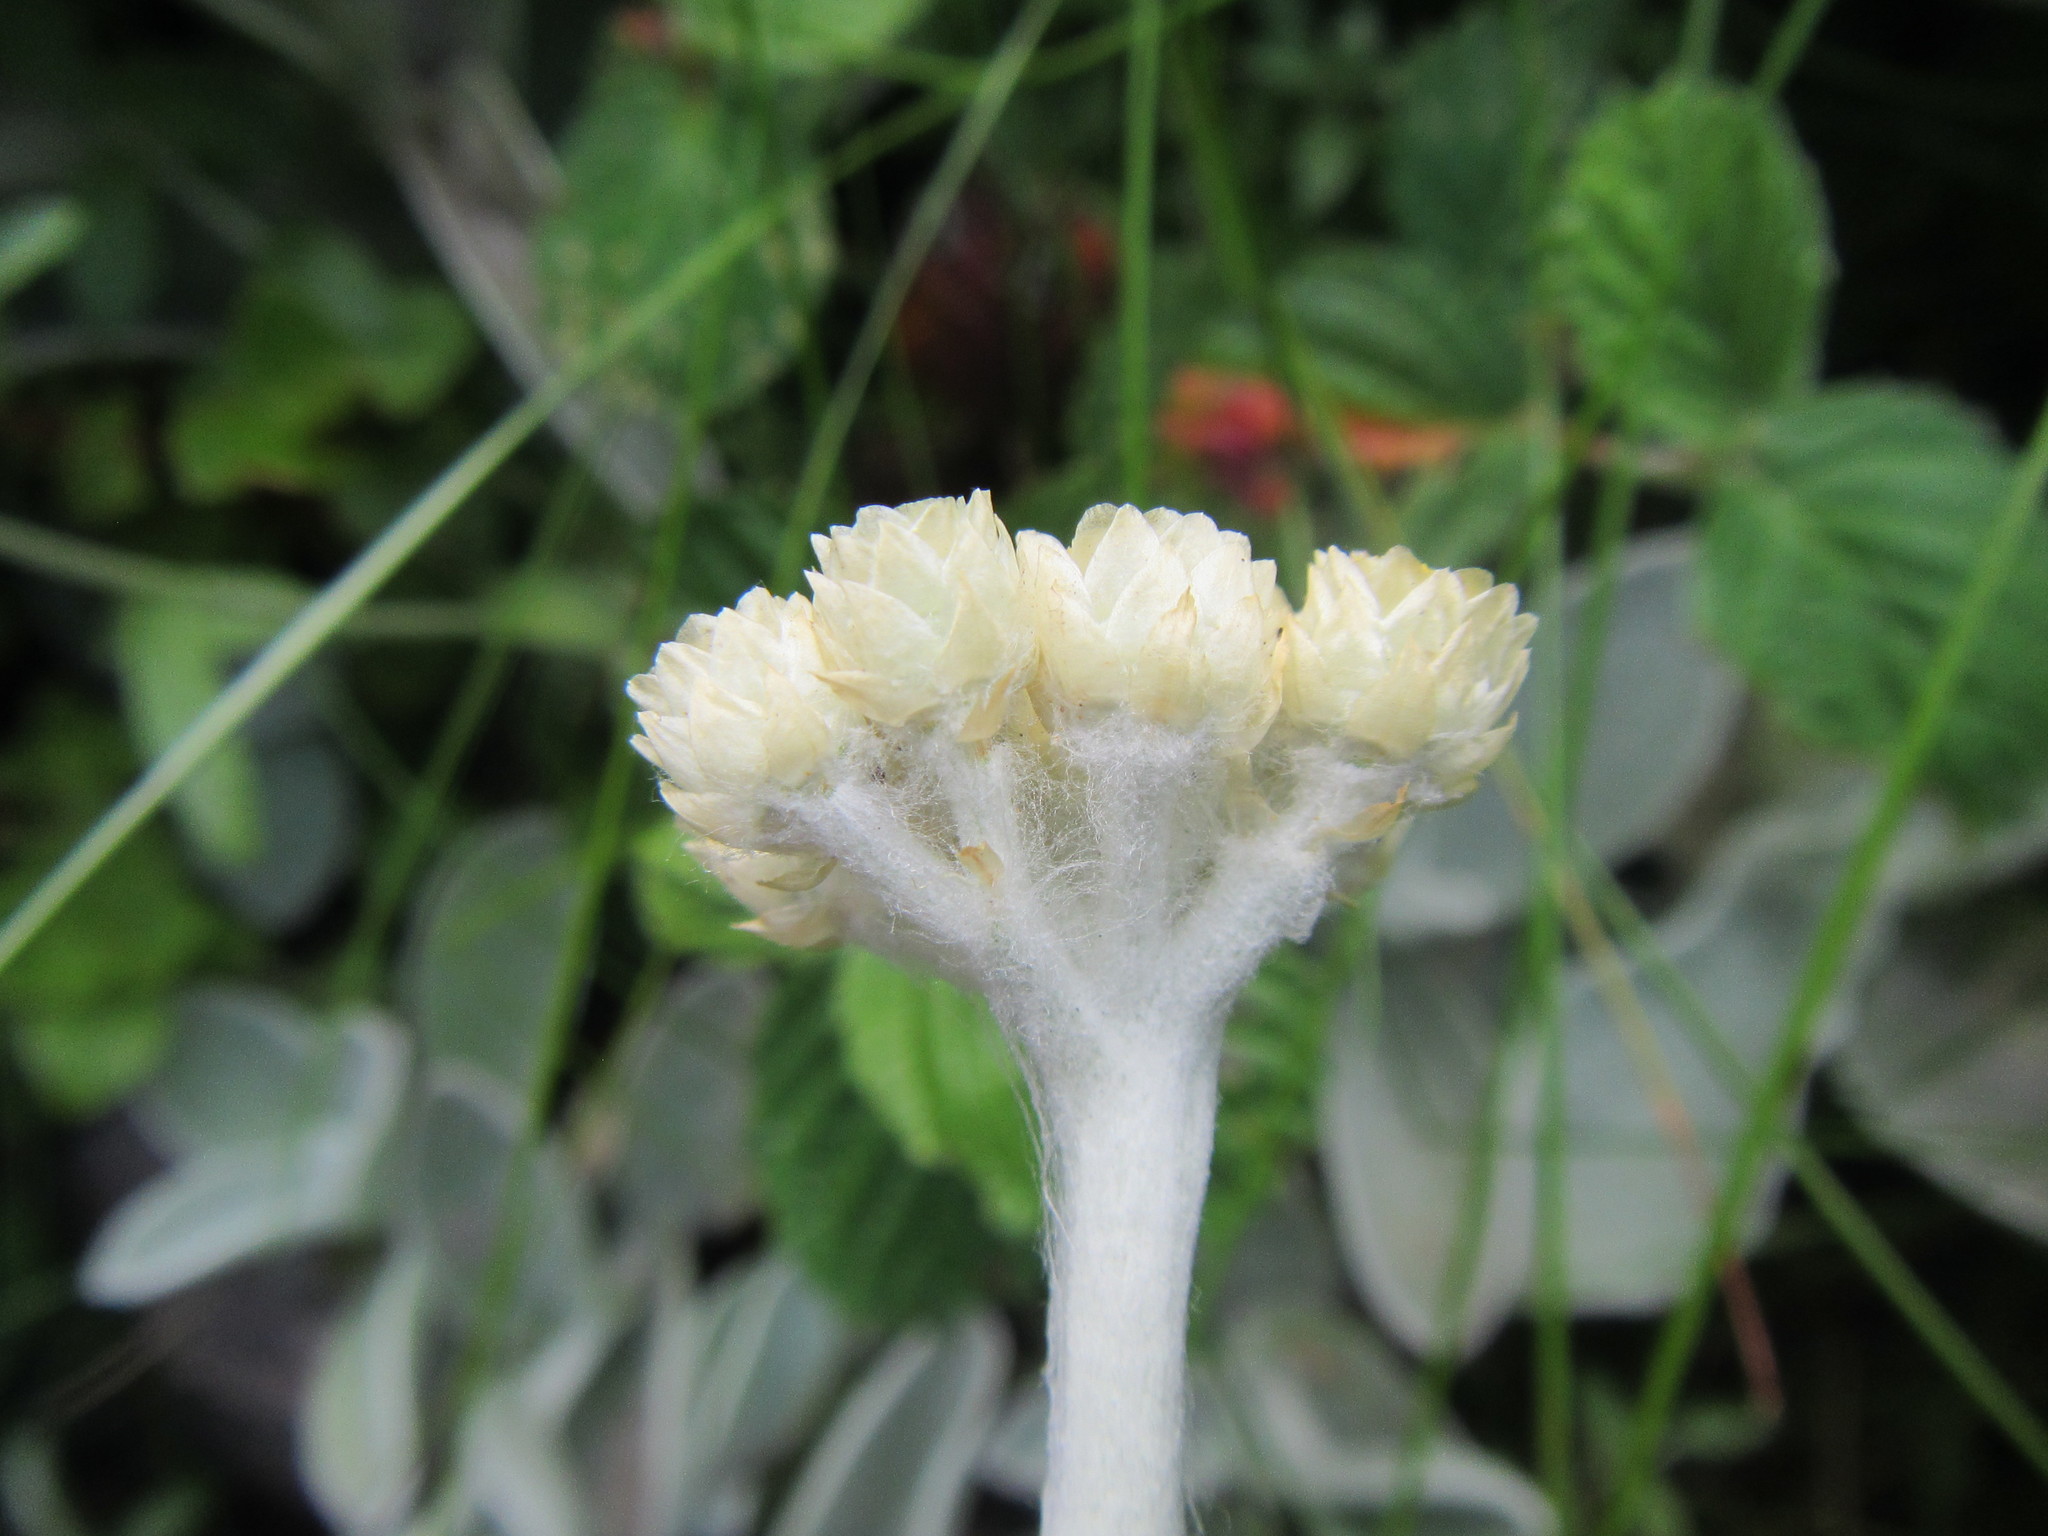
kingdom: Plantae
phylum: Tracheophyta
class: Magnoliopsida
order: Asterales
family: Asteraceae
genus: Helichrysum
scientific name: Helichrysum grandiflorum
